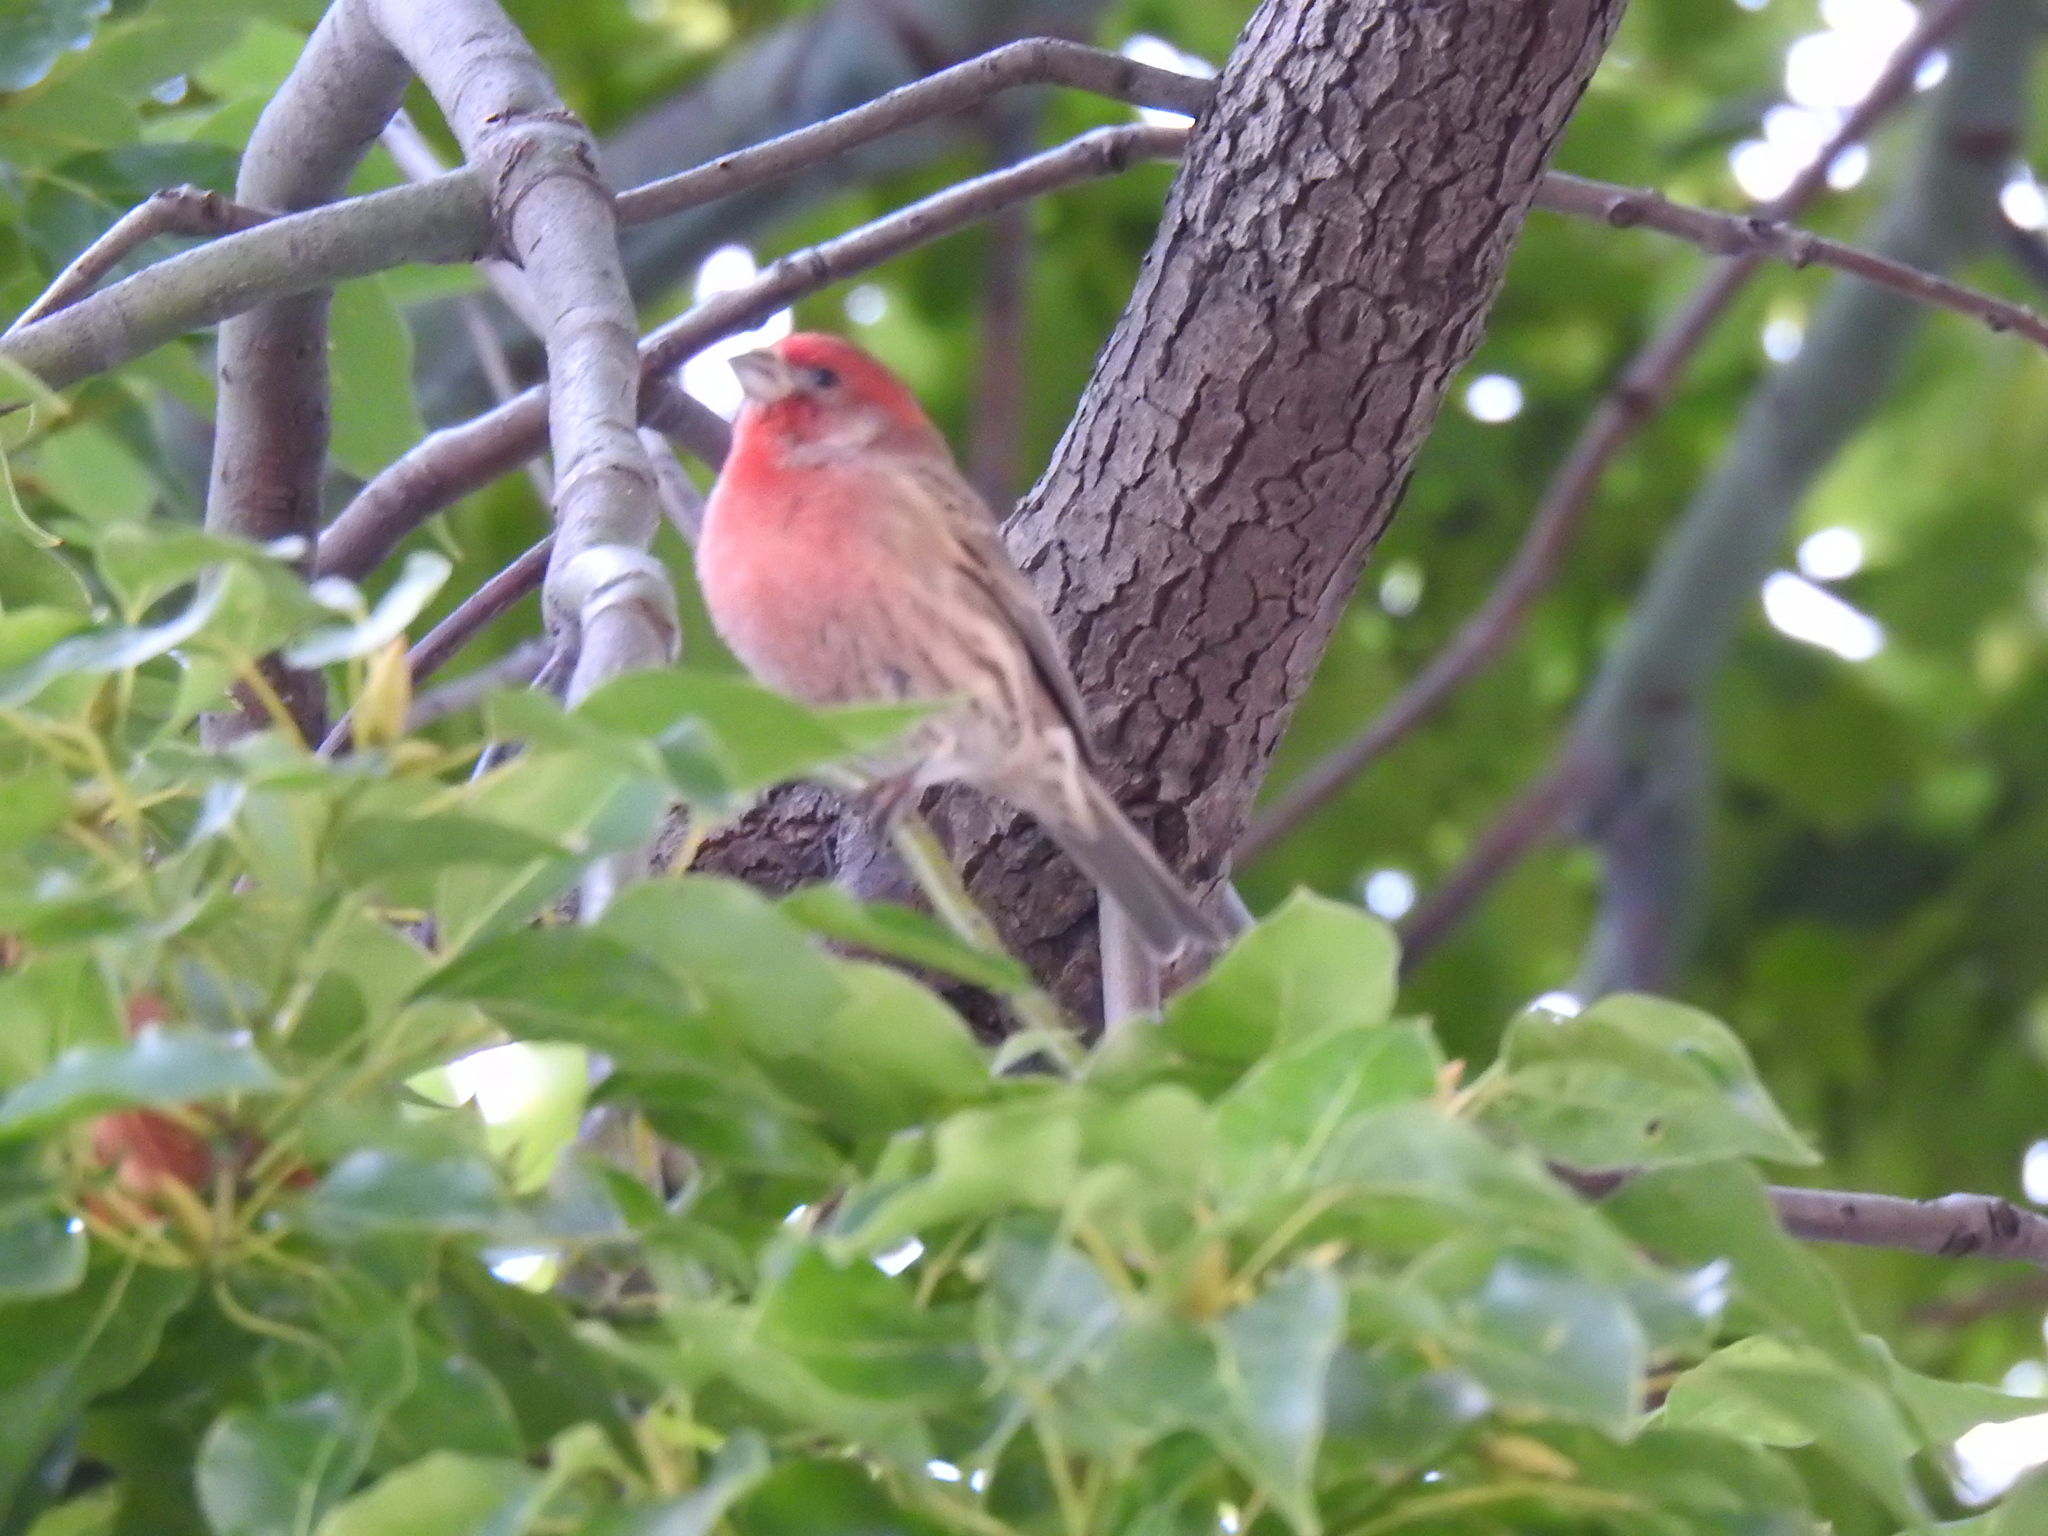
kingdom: Animalia
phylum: Chordata
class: Aves
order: Passeriformes
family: Fringillidae
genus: Haemorhous
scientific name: Haemorhous mexicanus
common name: House finch
